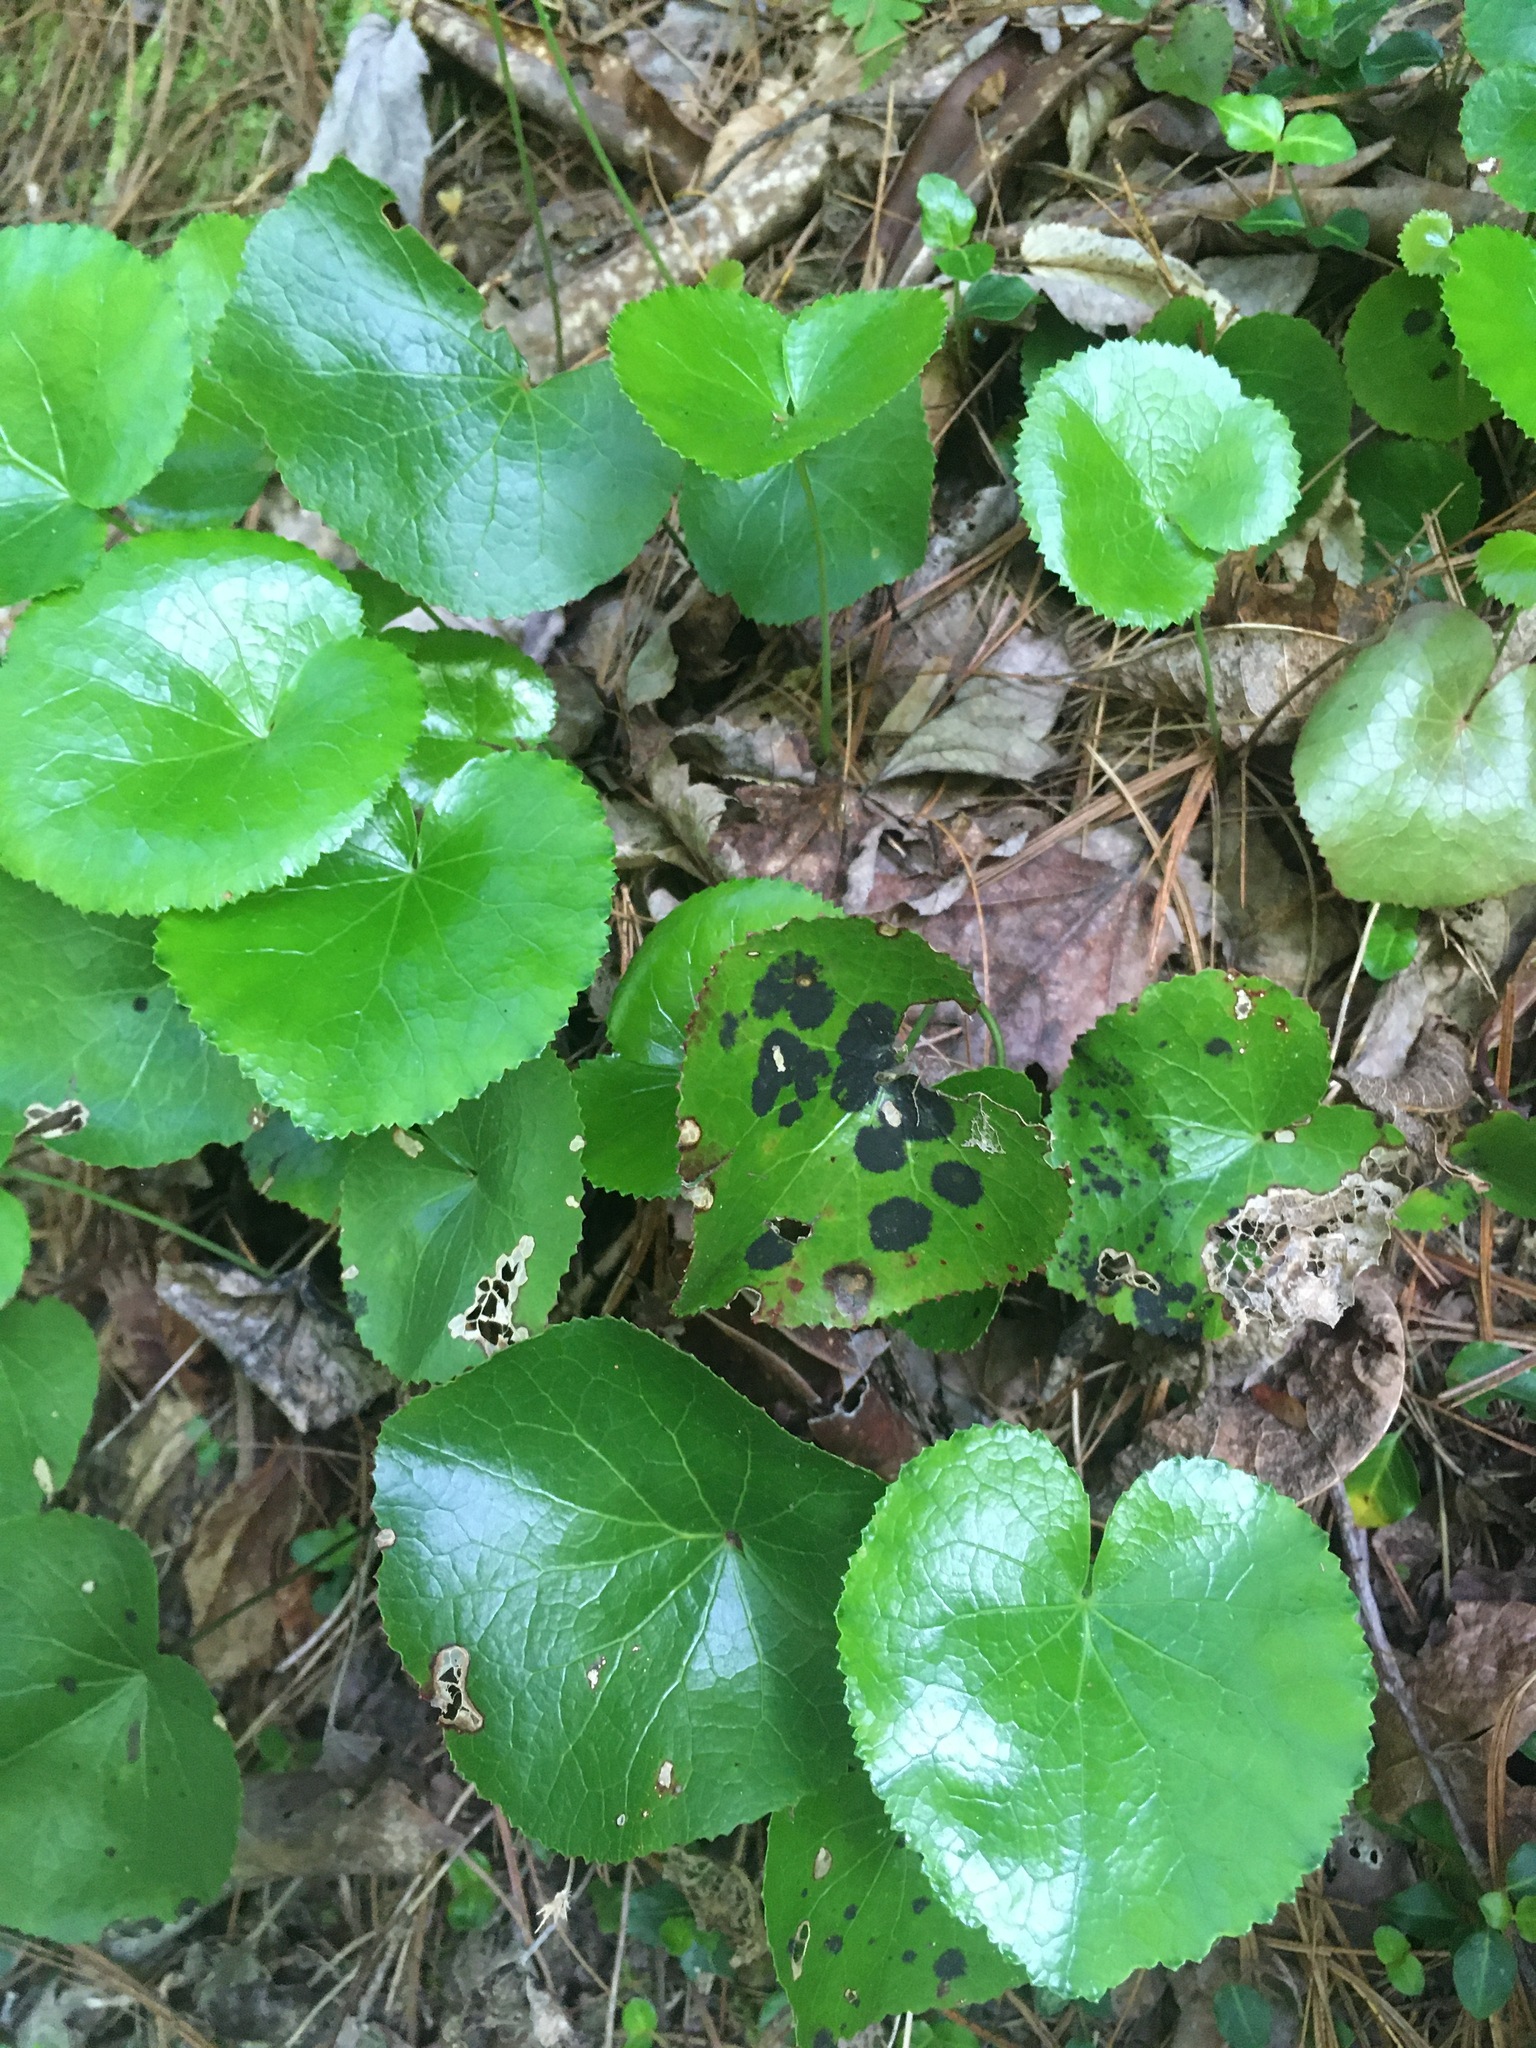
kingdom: Plantae
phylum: Tracheophyta
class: Magnoliopsida
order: Ericales
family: Diapensiaceae
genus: Galax
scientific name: Galax urceolata
